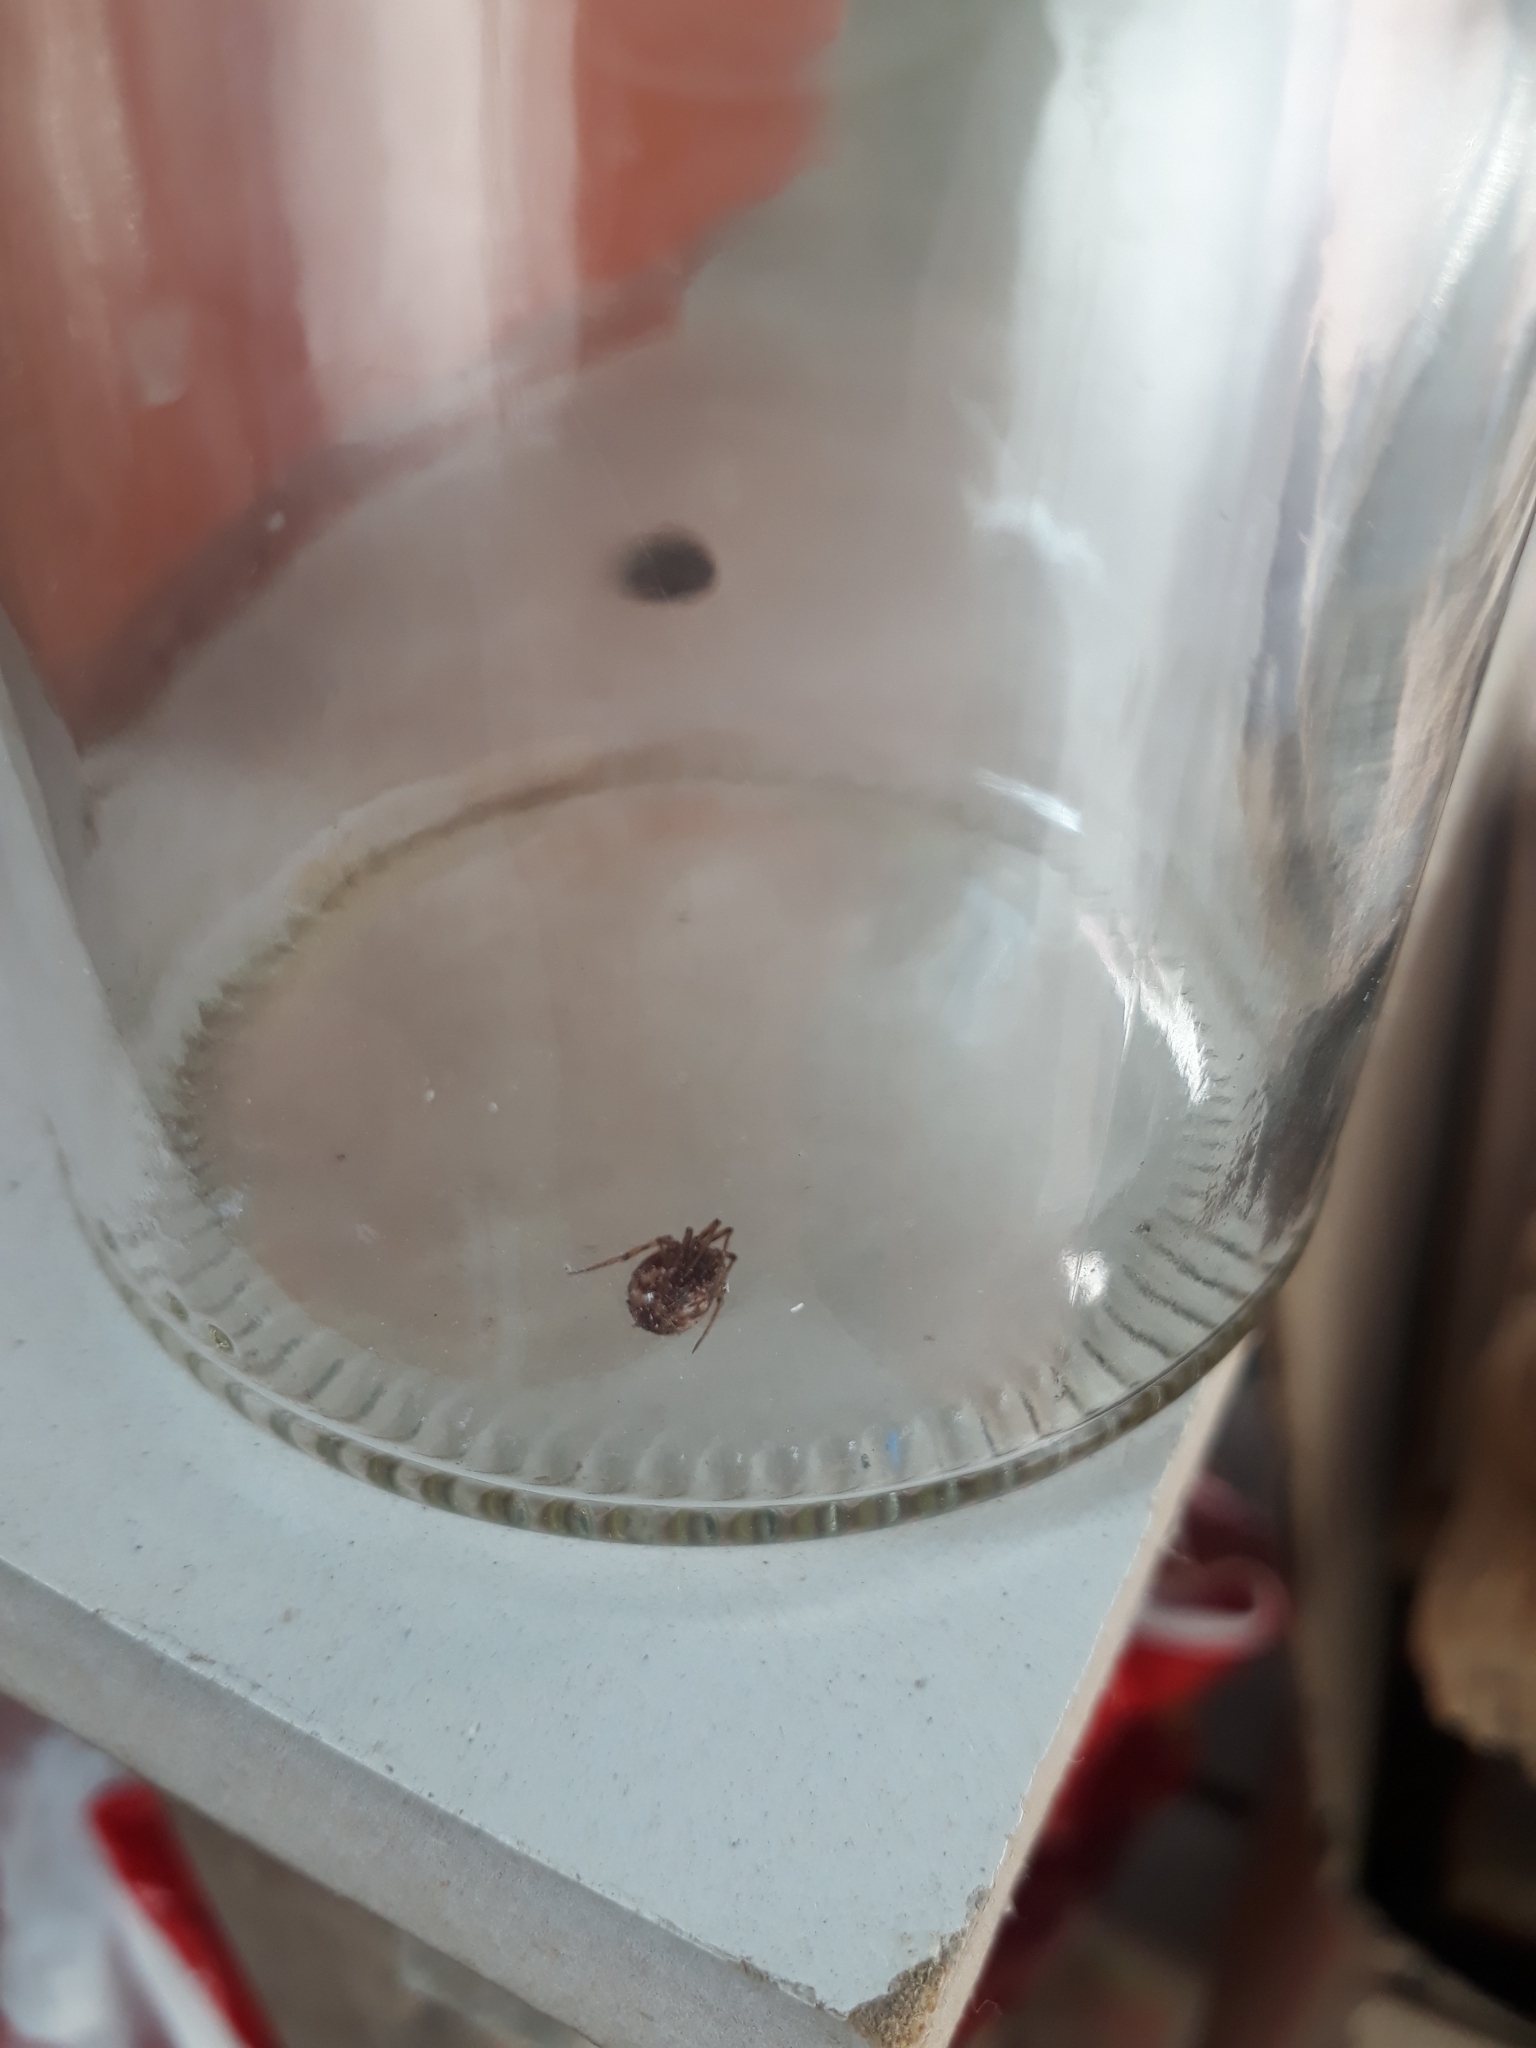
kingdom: Animalia
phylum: Arthropoda
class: Arachnida
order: Araneae
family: Theridiidae
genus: Steatoda
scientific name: Steatoda triangulosa
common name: Triangulate bud spider
